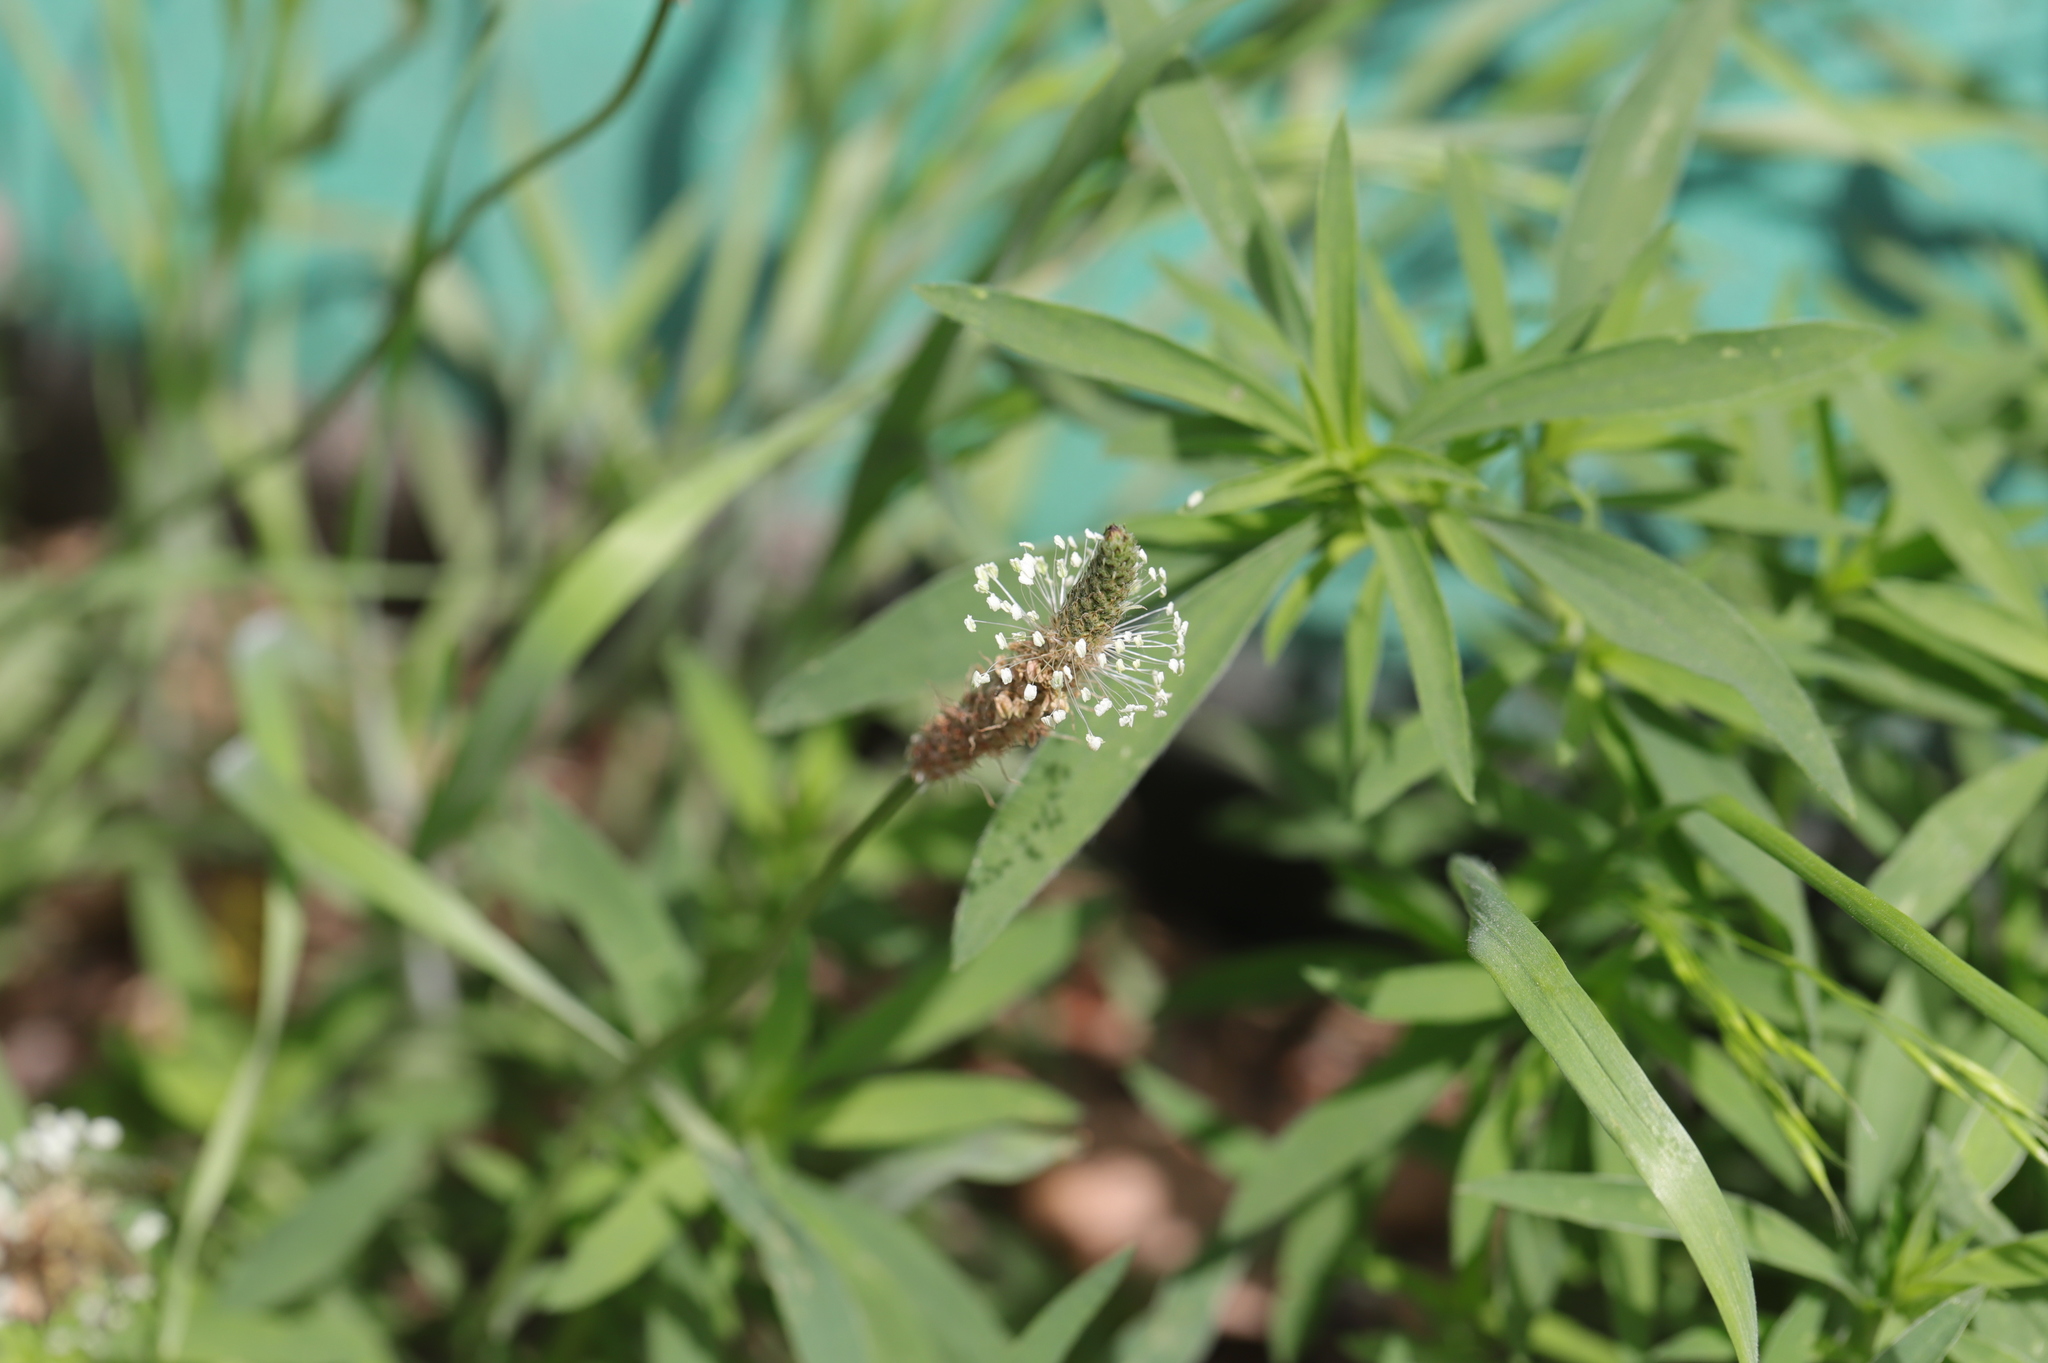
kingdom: Plantae
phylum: Tracheophyta
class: Magnoliopsida
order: Lamiales
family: Plantaginaceae
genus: Plantago
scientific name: Plantago lanceolata
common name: Ribwort plantain
